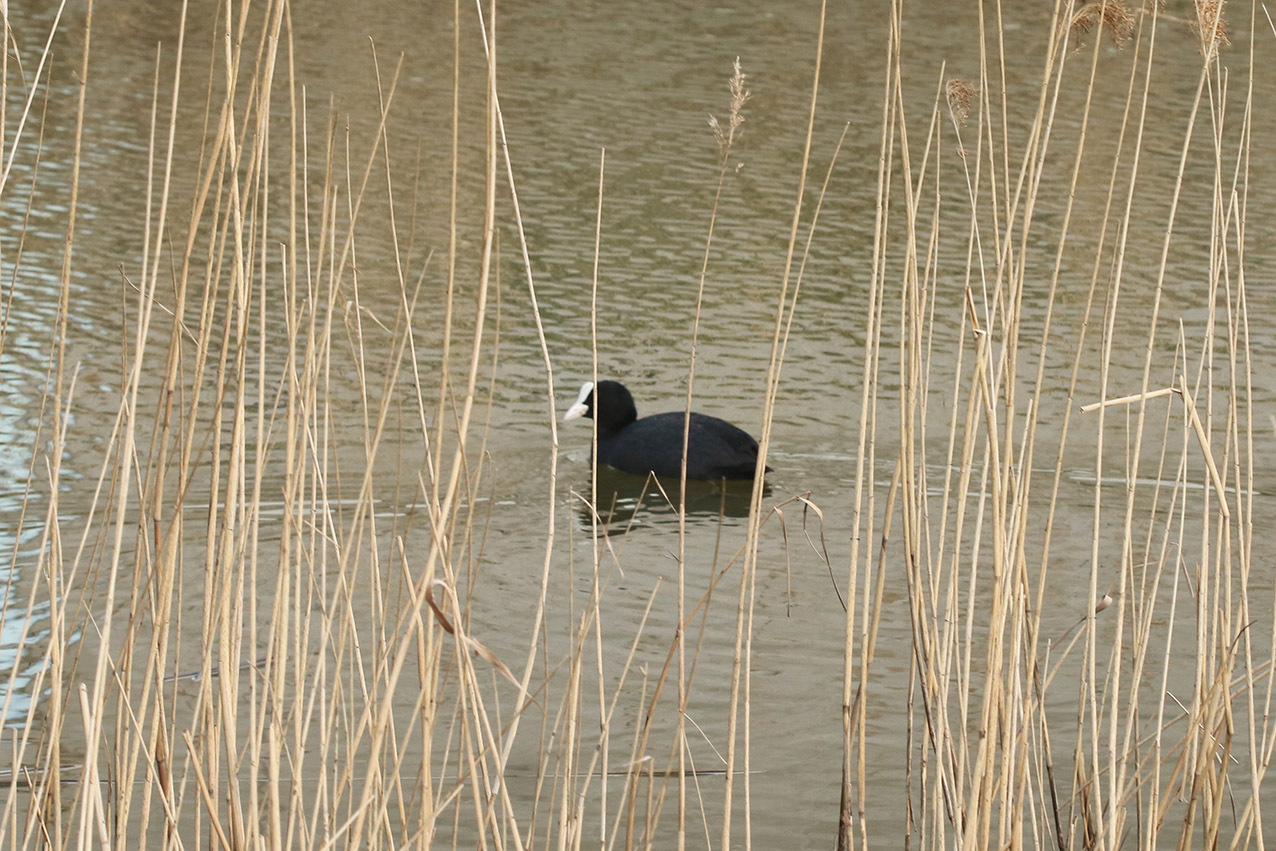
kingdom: Animalia
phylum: Chordata
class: Aves
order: Gruiformes
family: Rallidae
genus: Fulica
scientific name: Fulica atra
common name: Eurasian coot
